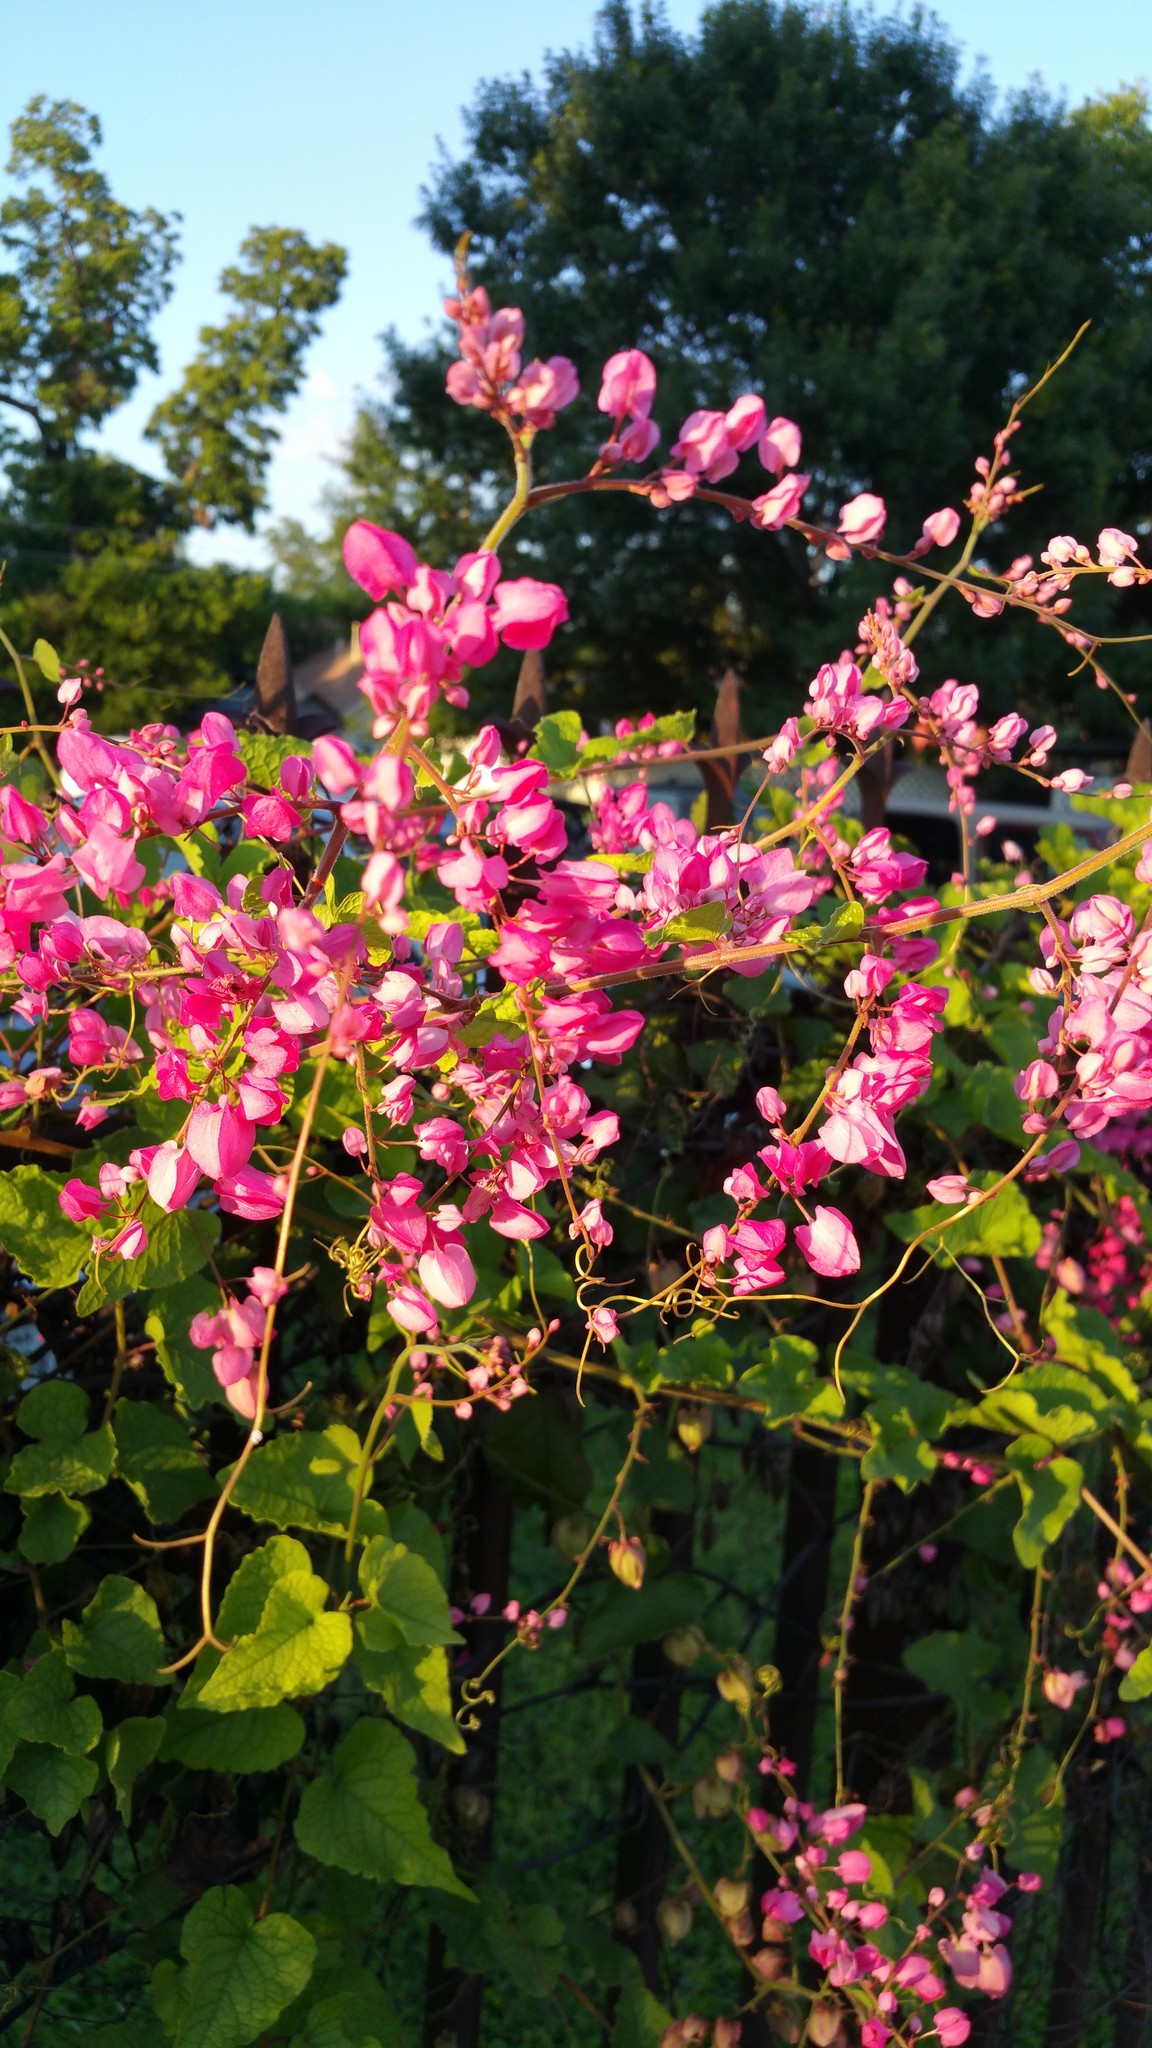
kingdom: Plantae
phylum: Tracheophyta
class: Magnoliopsida
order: Caryophyllales
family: Polygonaceae
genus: Antigonon
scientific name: Antigonon leptopus
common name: Coral vine
